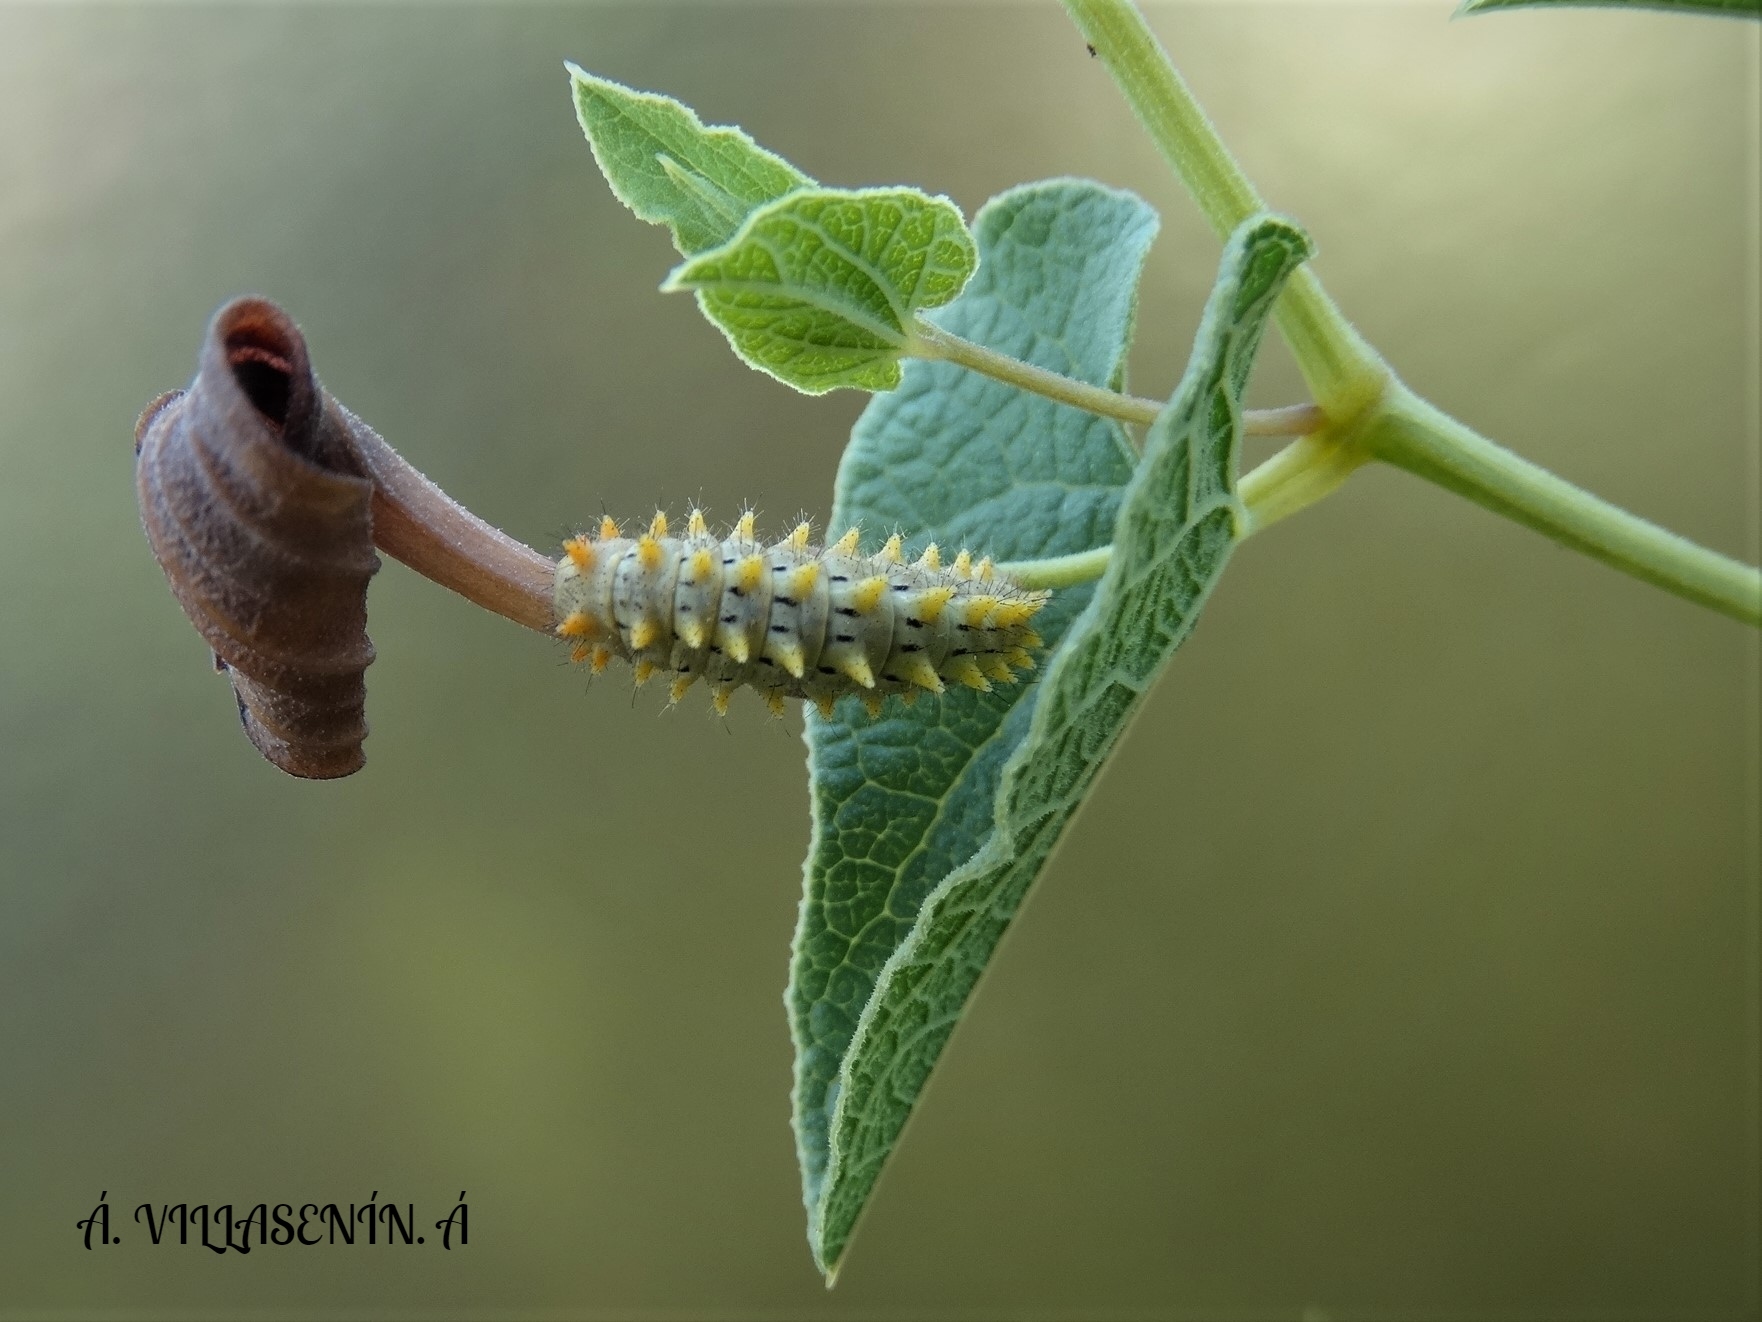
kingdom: Animalia
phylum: Arthropoda
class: Insecta
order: Lepidoptera
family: Papilionidae
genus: Zerynthia
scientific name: Zerynthia rumina
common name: Spanish festoon
